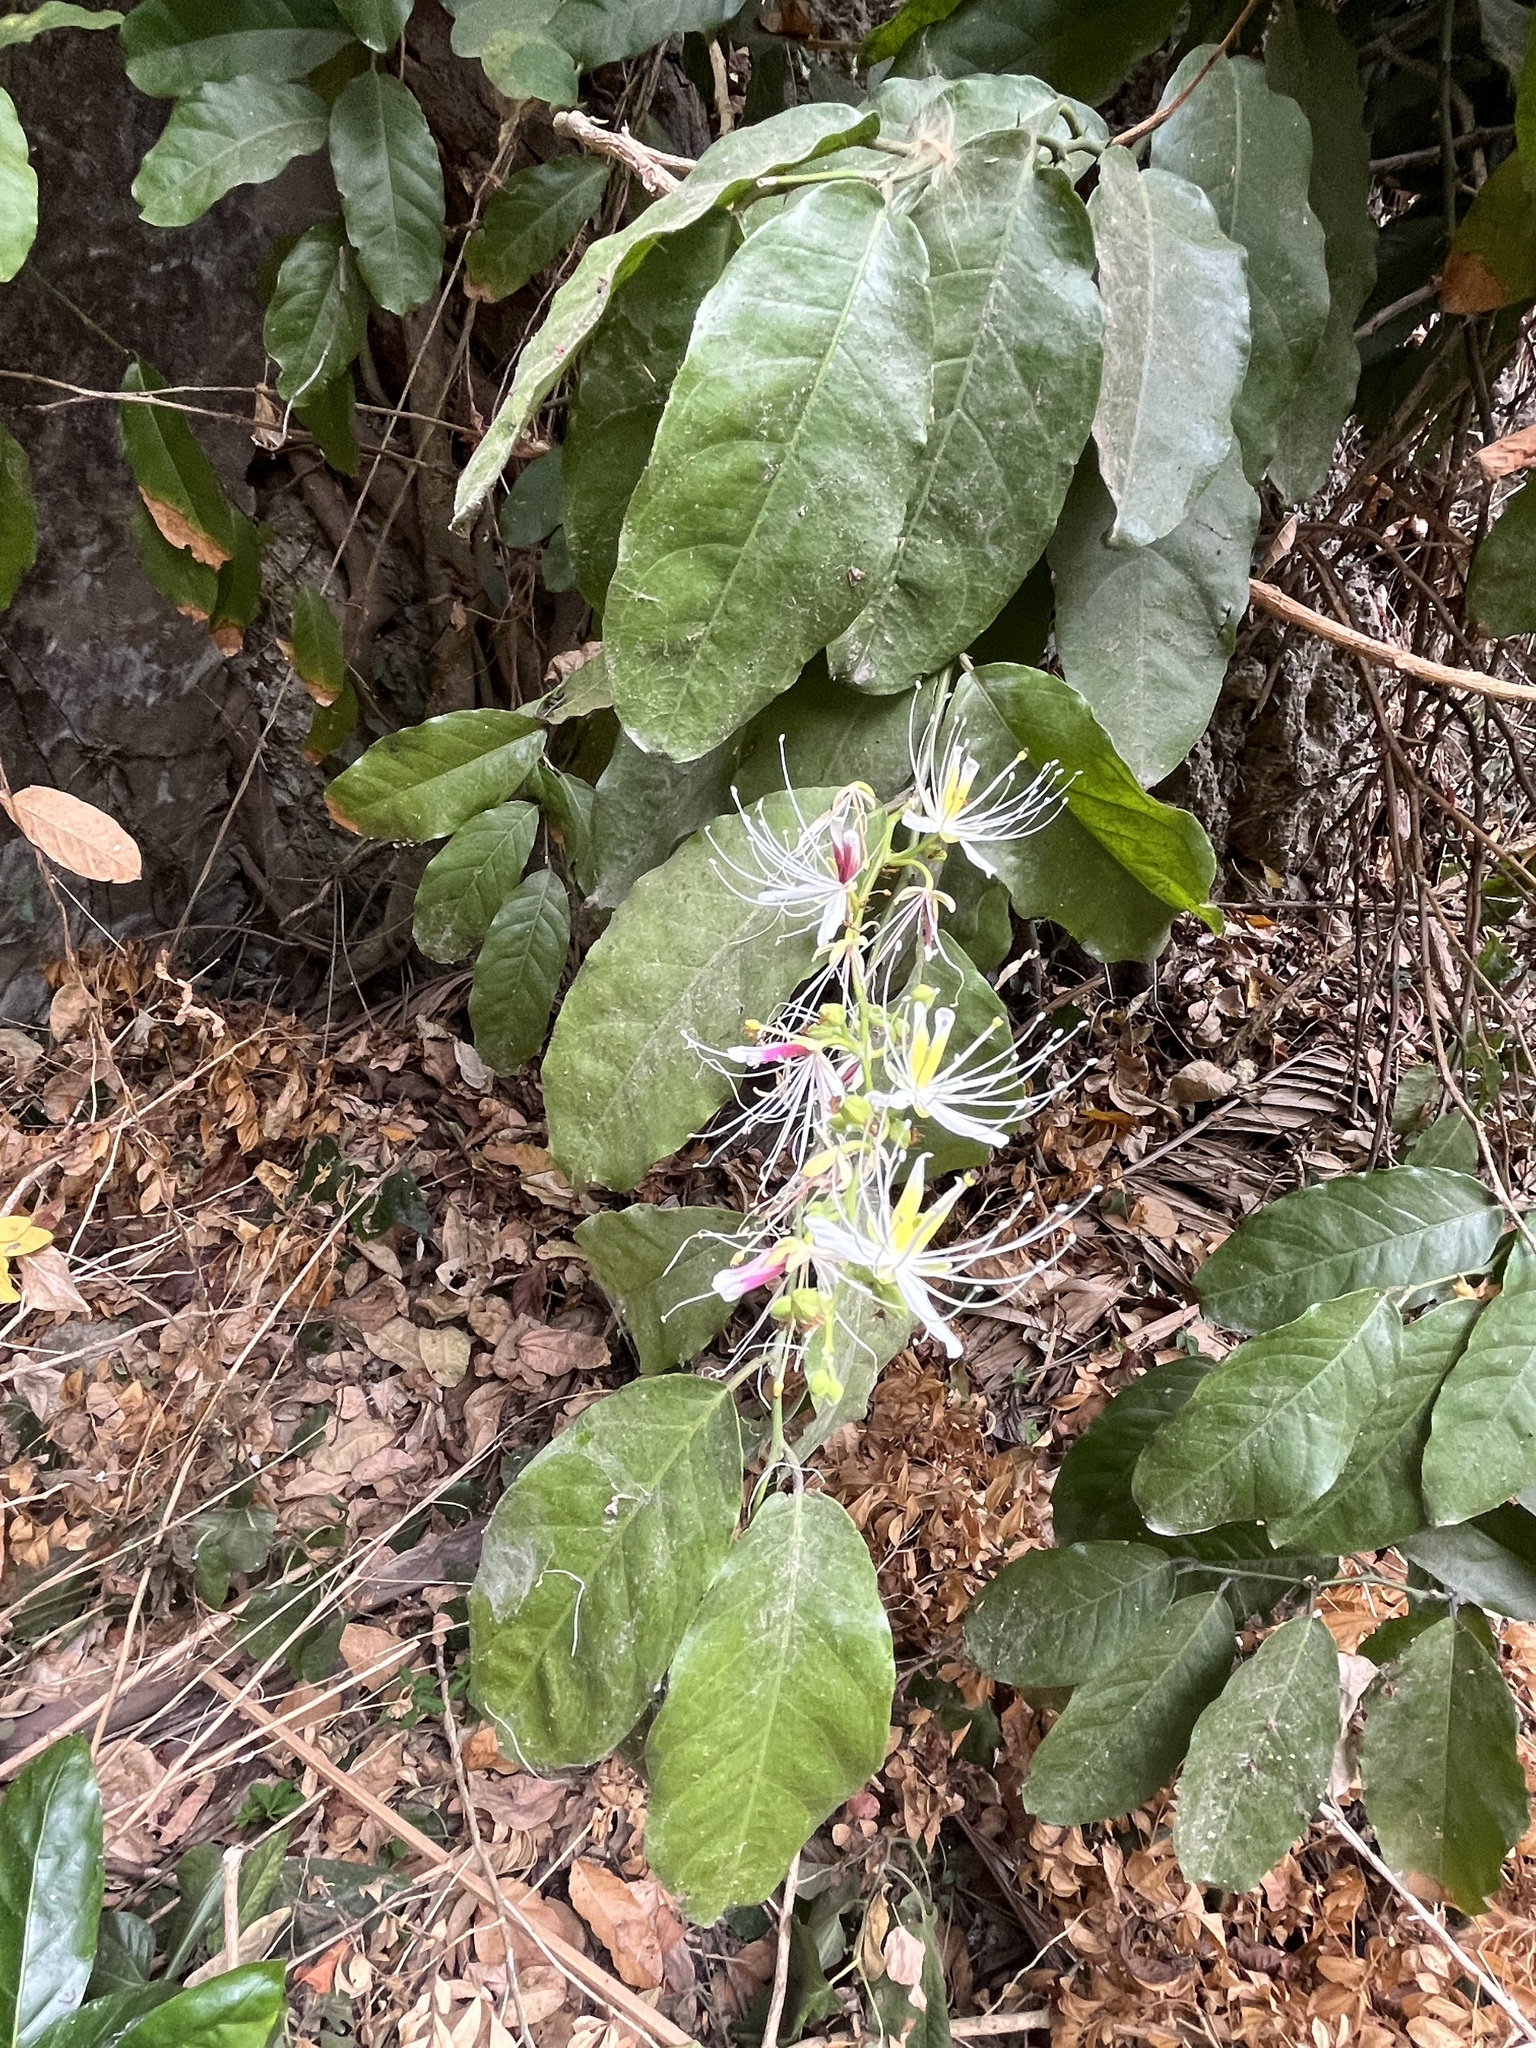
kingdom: Plantae
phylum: Tracheophyta
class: Magnoliopsida
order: Brassicales
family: Capparaceae
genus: Capparis
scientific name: Capparis micracantha
